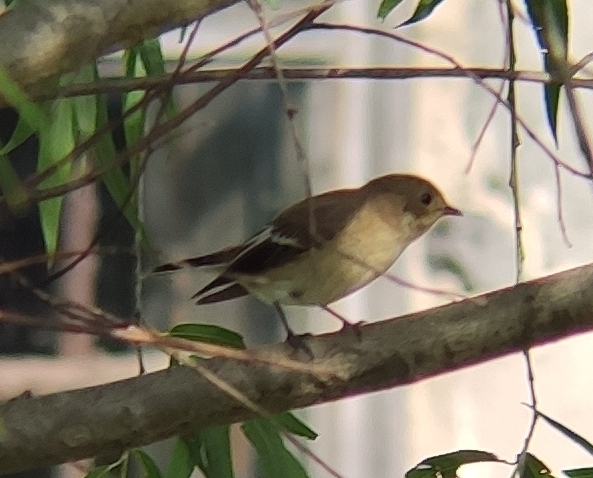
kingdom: Animalia
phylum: Chordata
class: Aves
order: Passeriformes
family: Muscicapidae
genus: Ficedula
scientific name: Ficedula hypoleuca
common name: European pied flycatcher
